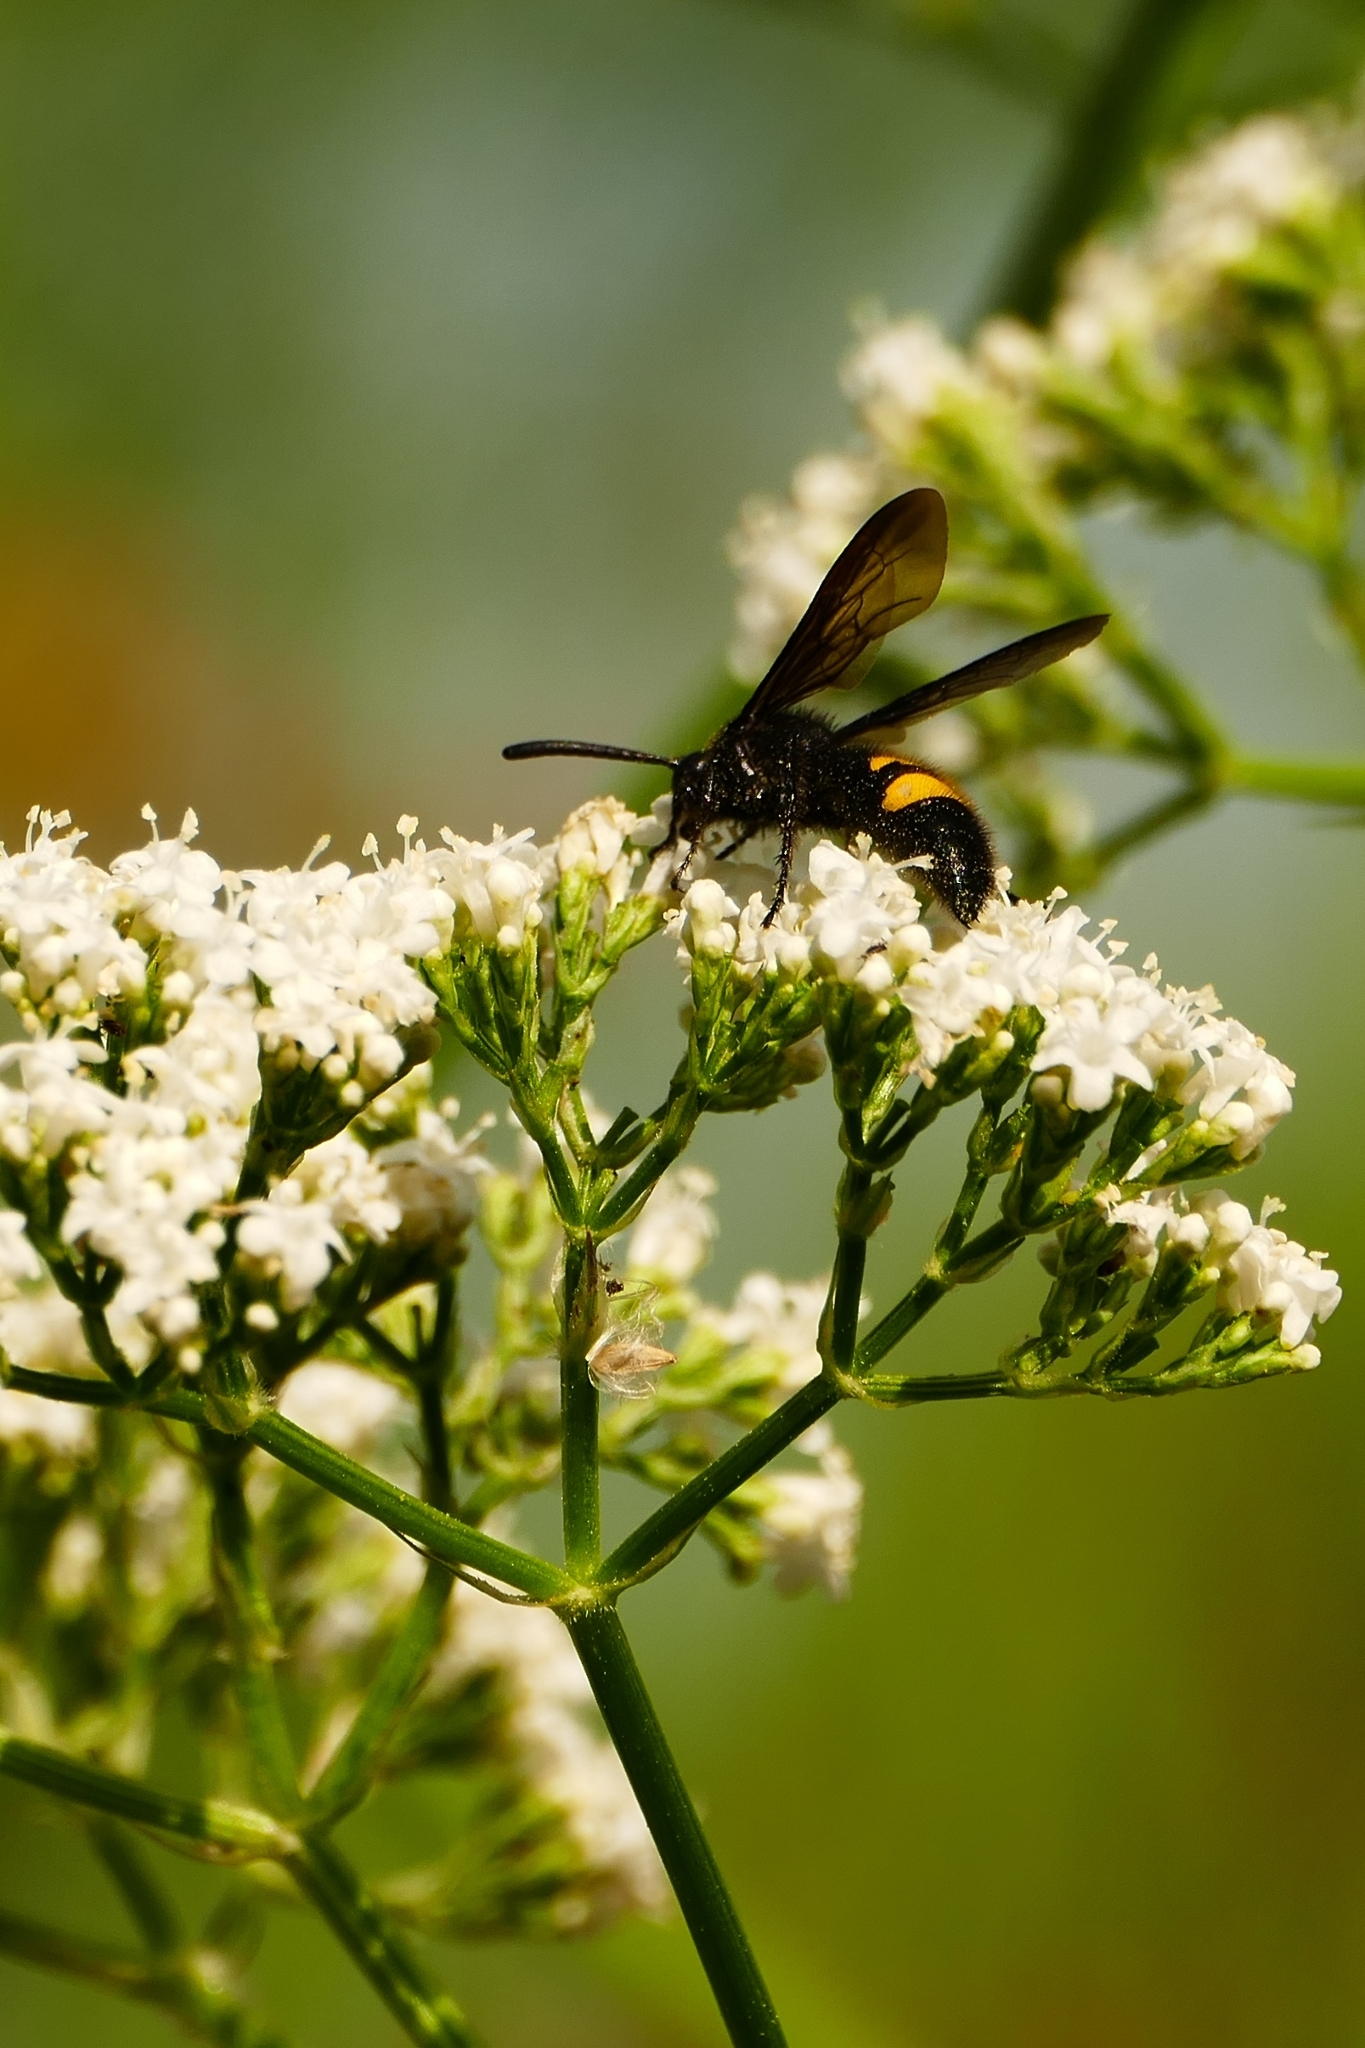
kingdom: Animalia
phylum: Arthropoda
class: Insecta
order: Hymenoptera
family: Scoliidae
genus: Scolia
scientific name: Scolia hirta
